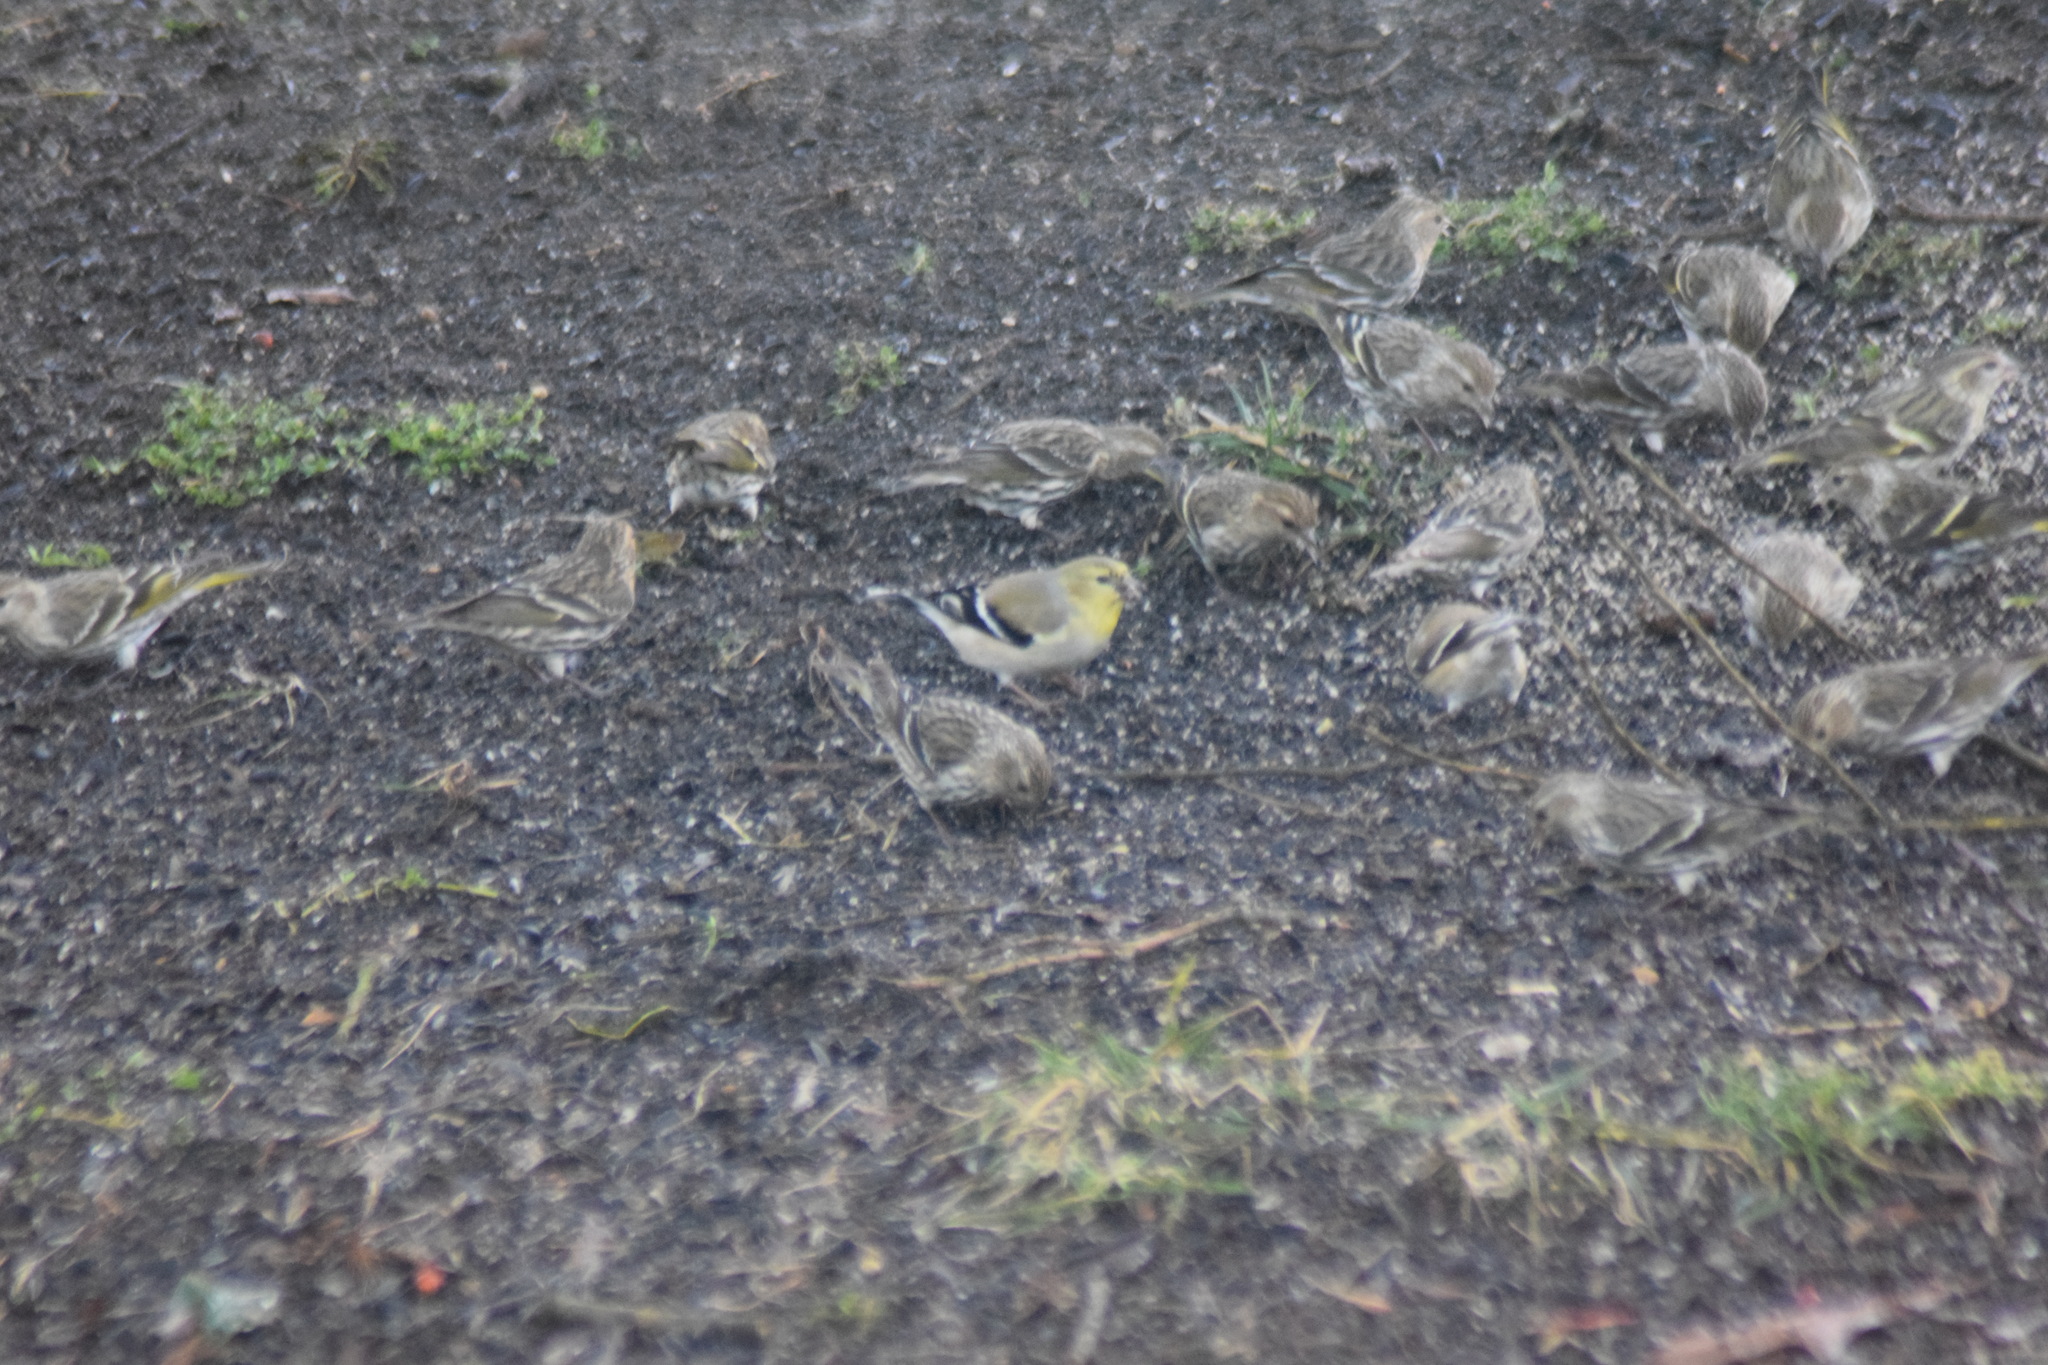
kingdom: Animalia
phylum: Chordata
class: Aves
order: Passeriformes
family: Fringillidae
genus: Spinus
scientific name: Spinus tristis
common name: American goldfinch
